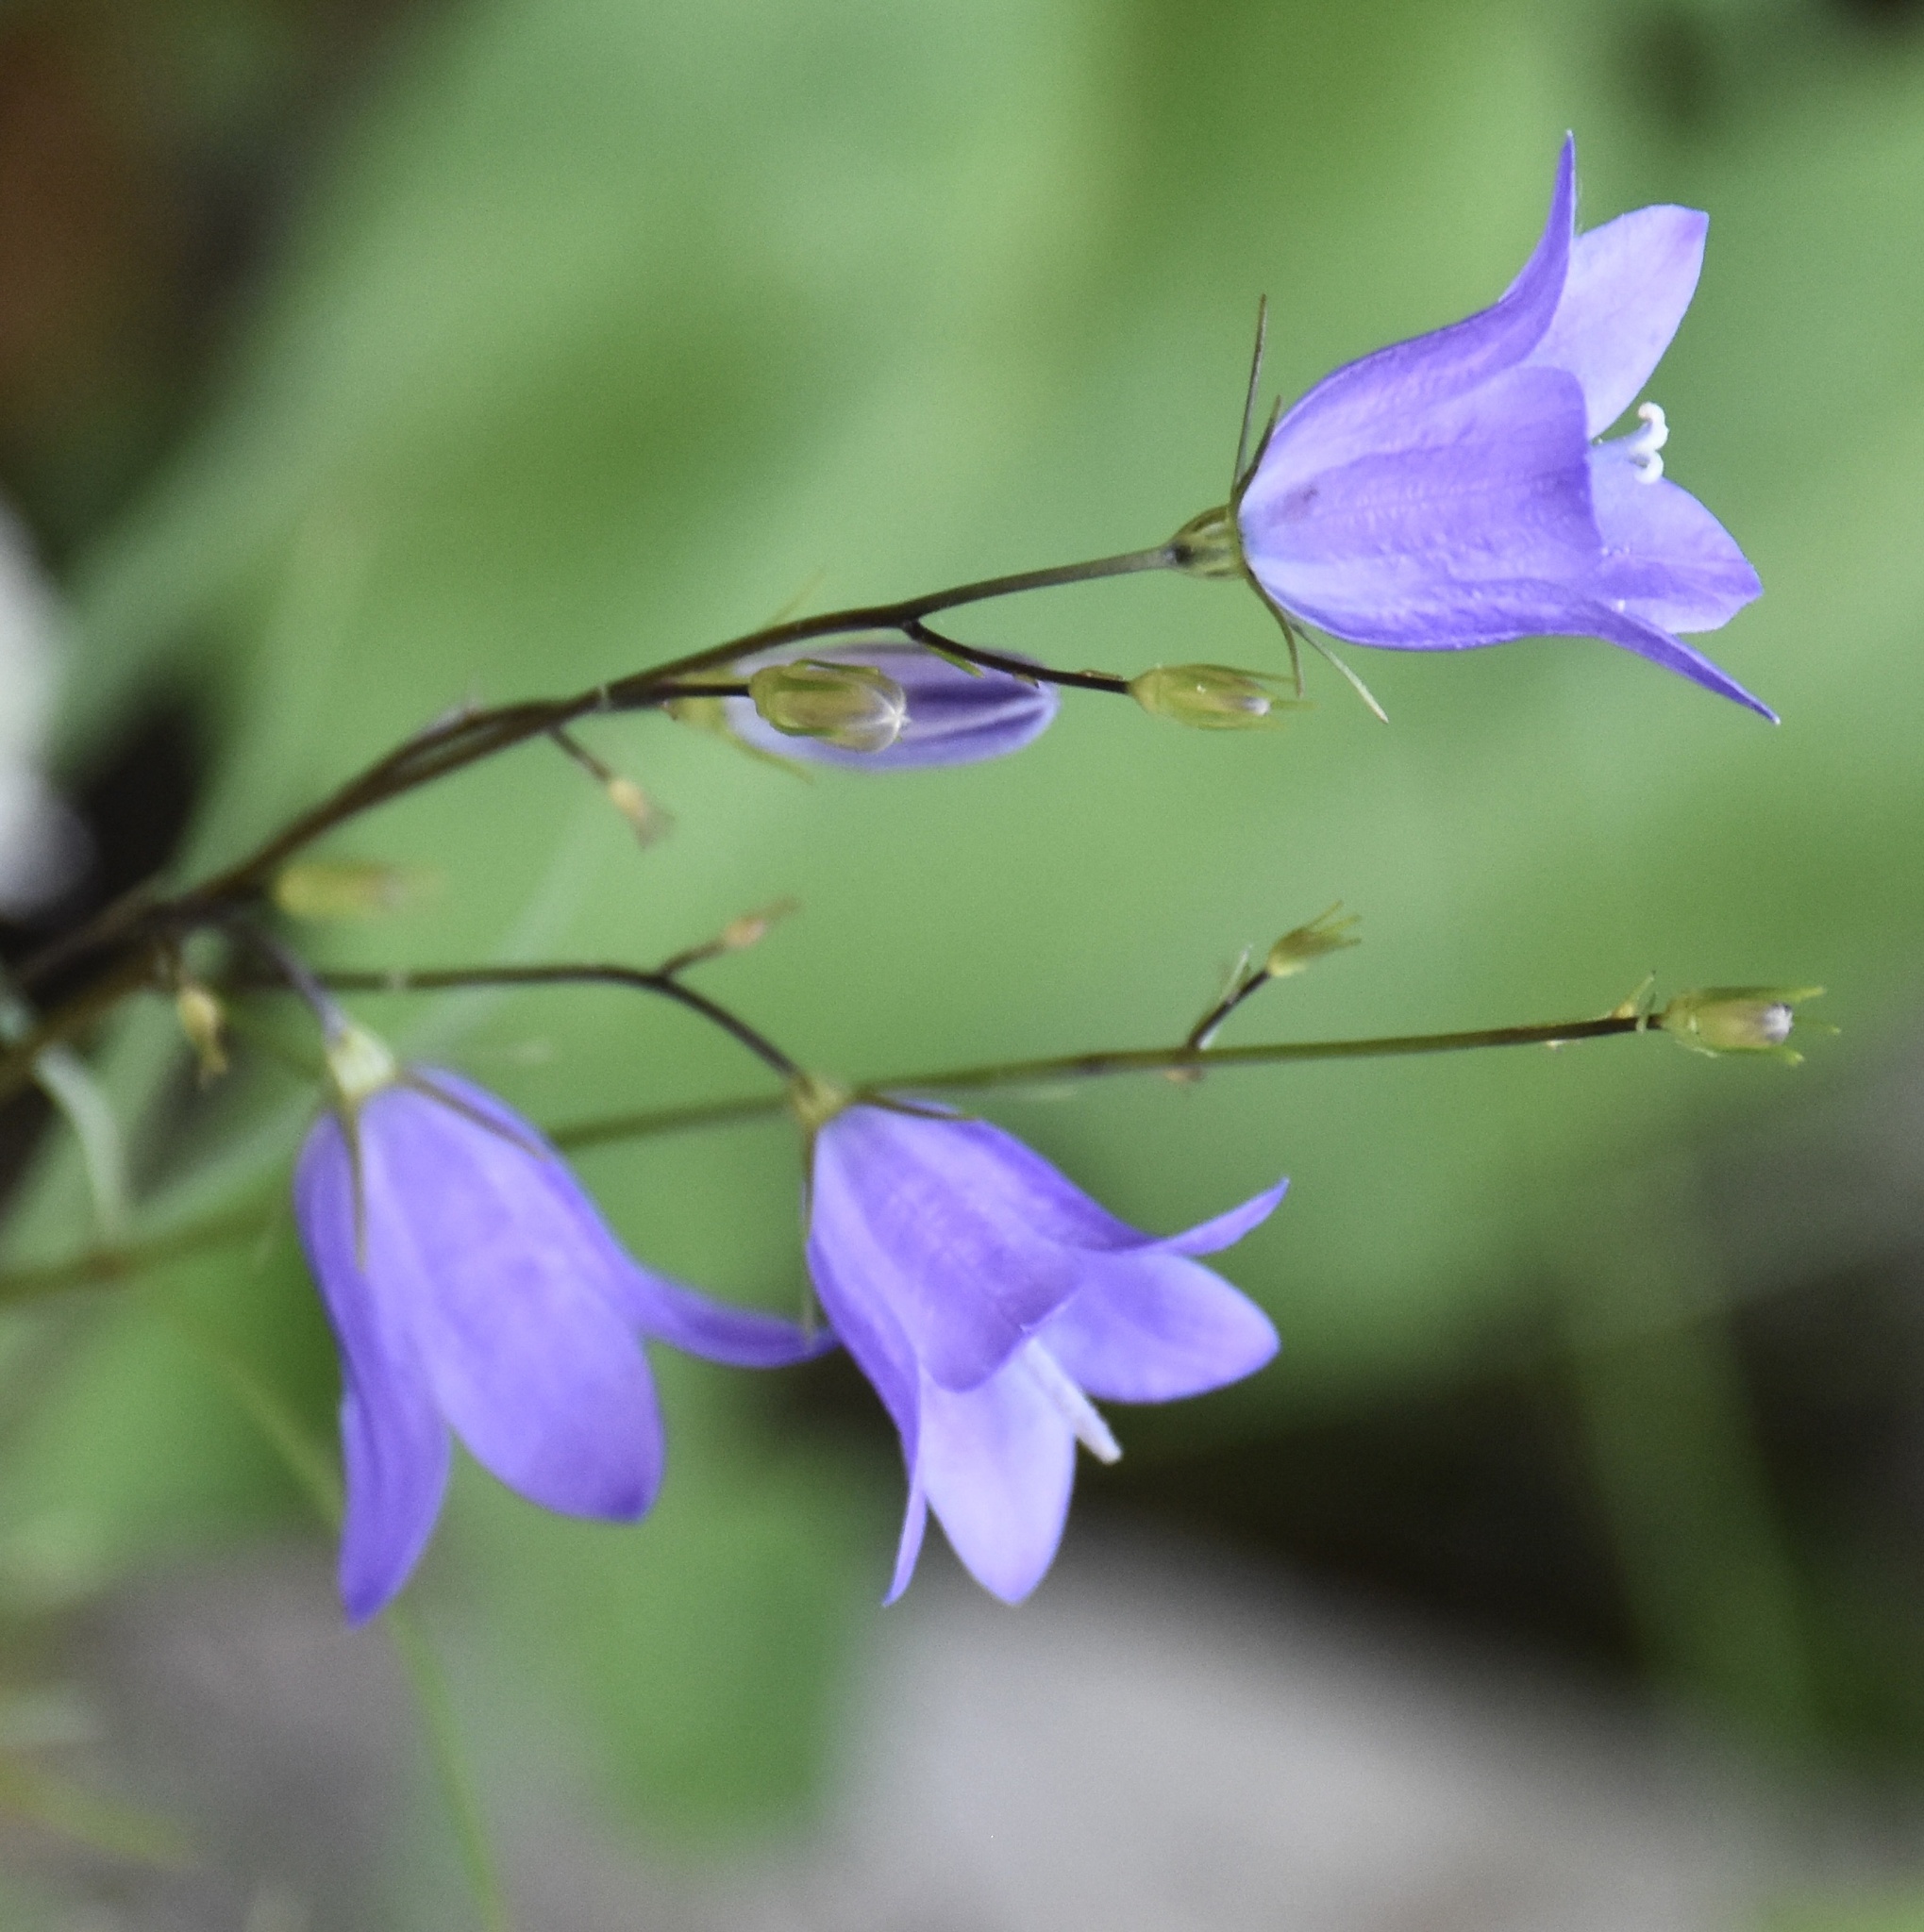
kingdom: Plantae
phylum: Tracheophyta
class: Magnoliopsida
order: Asterales
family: Campanulaceae
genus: Campanula
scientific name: Campanula alaskana
